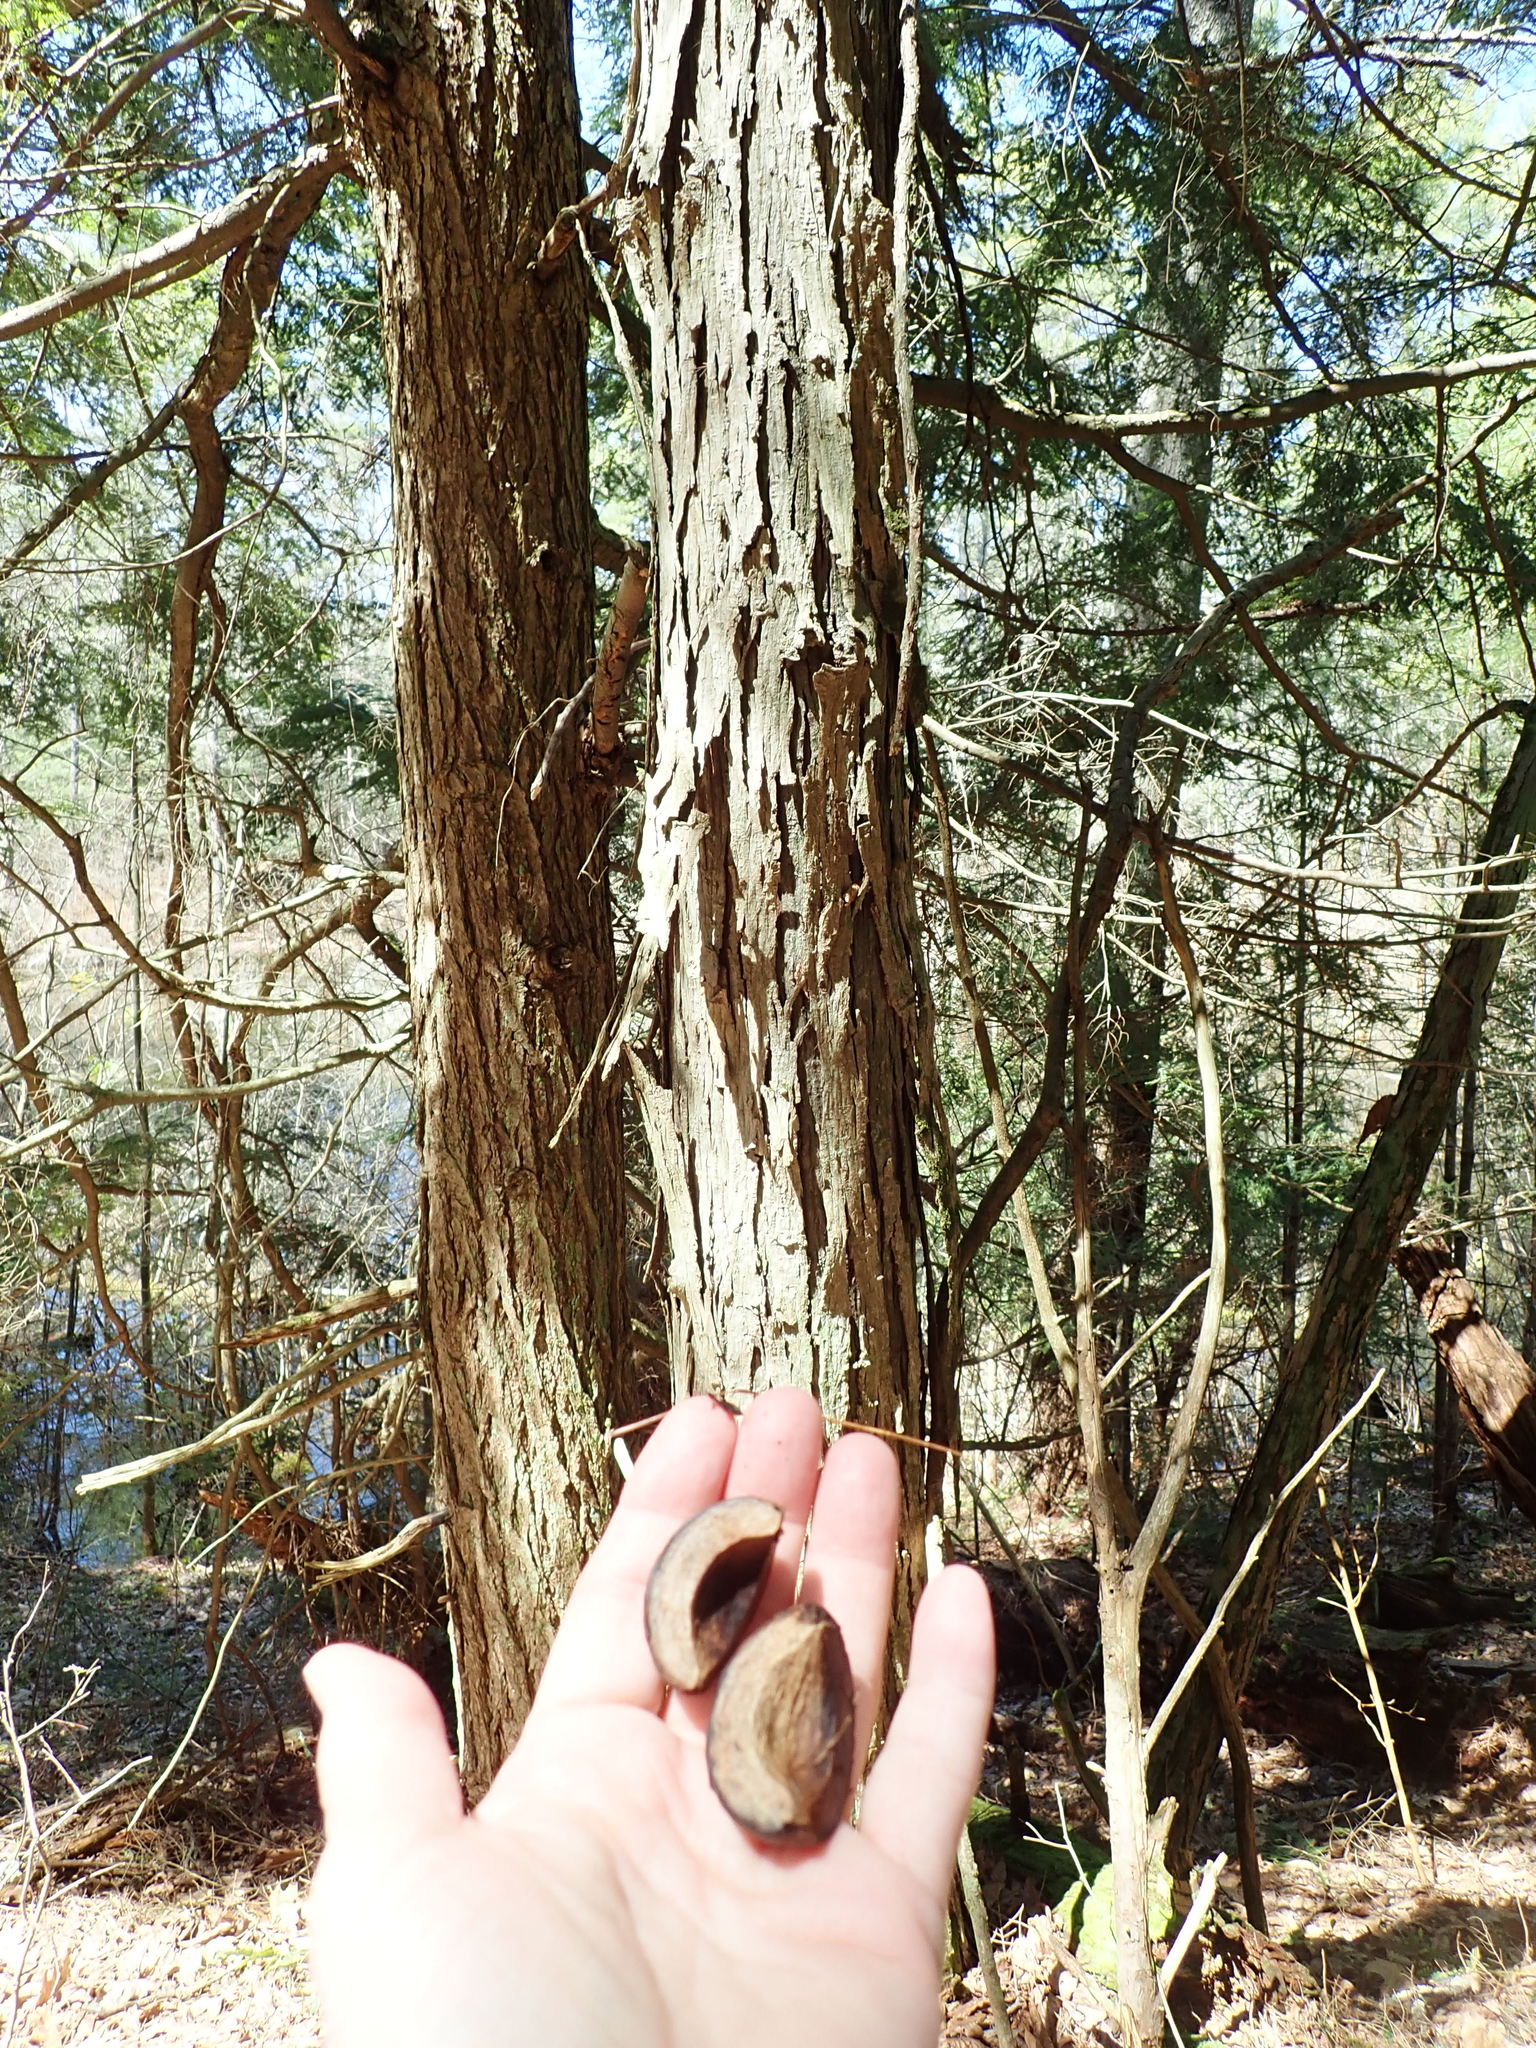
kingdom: Plantae
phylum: Tracheophyta
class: Magnoliopsida
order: Fagales
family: Juglandaceae
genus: Carya
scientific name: Carya ovata
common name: Shagbark hickory
